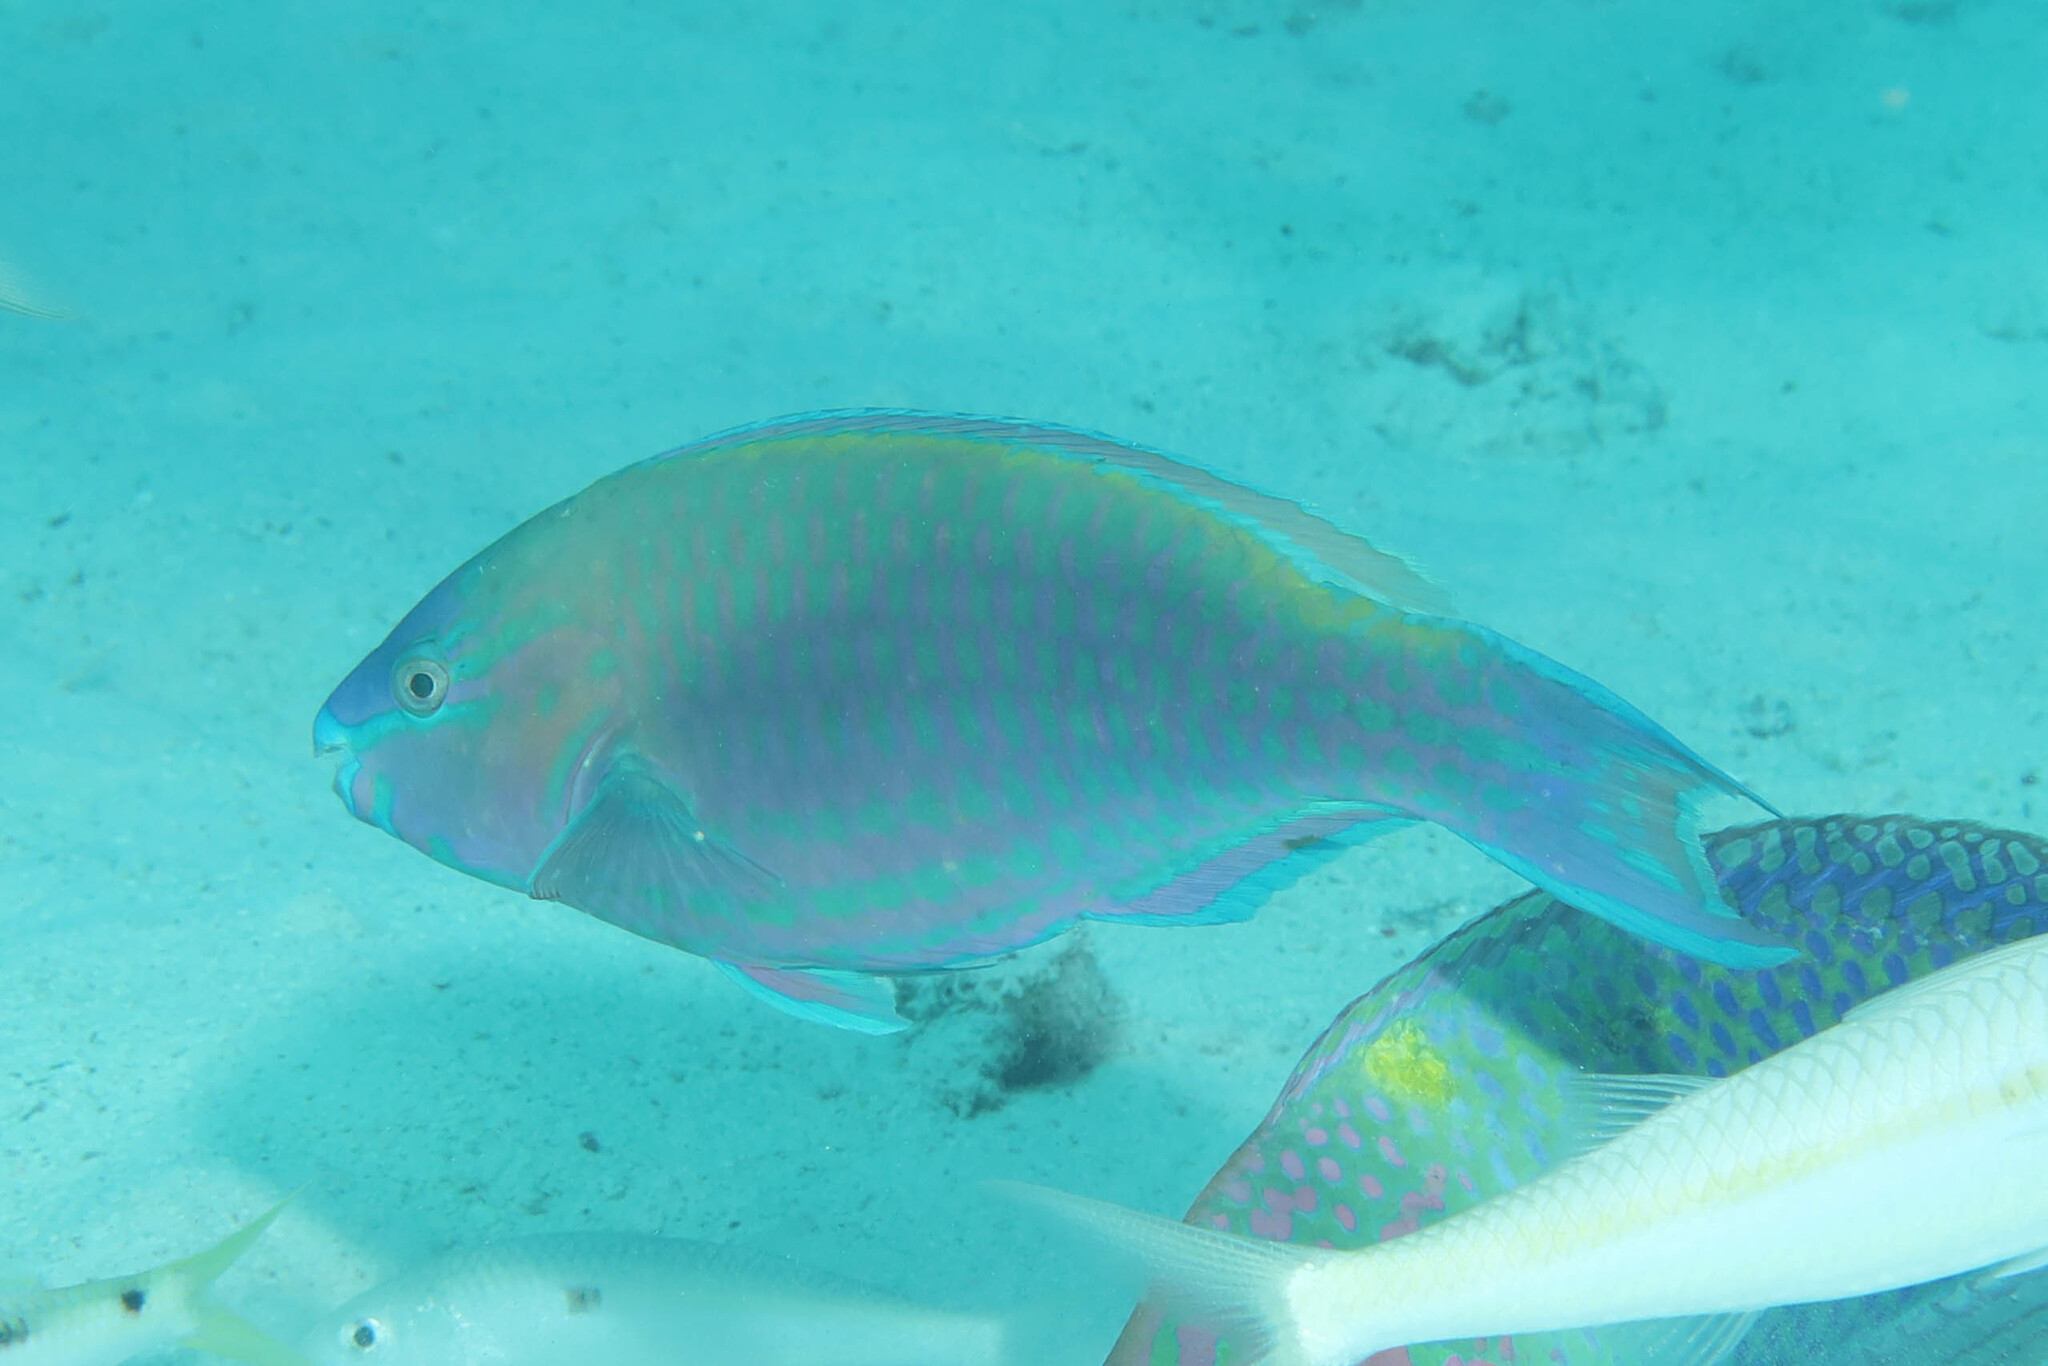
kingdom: Animalia
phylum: Chordata
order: Perciformes
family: Scaridae
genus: Scarus
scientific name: Scarus psittacus
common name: Palenose parrotfish
